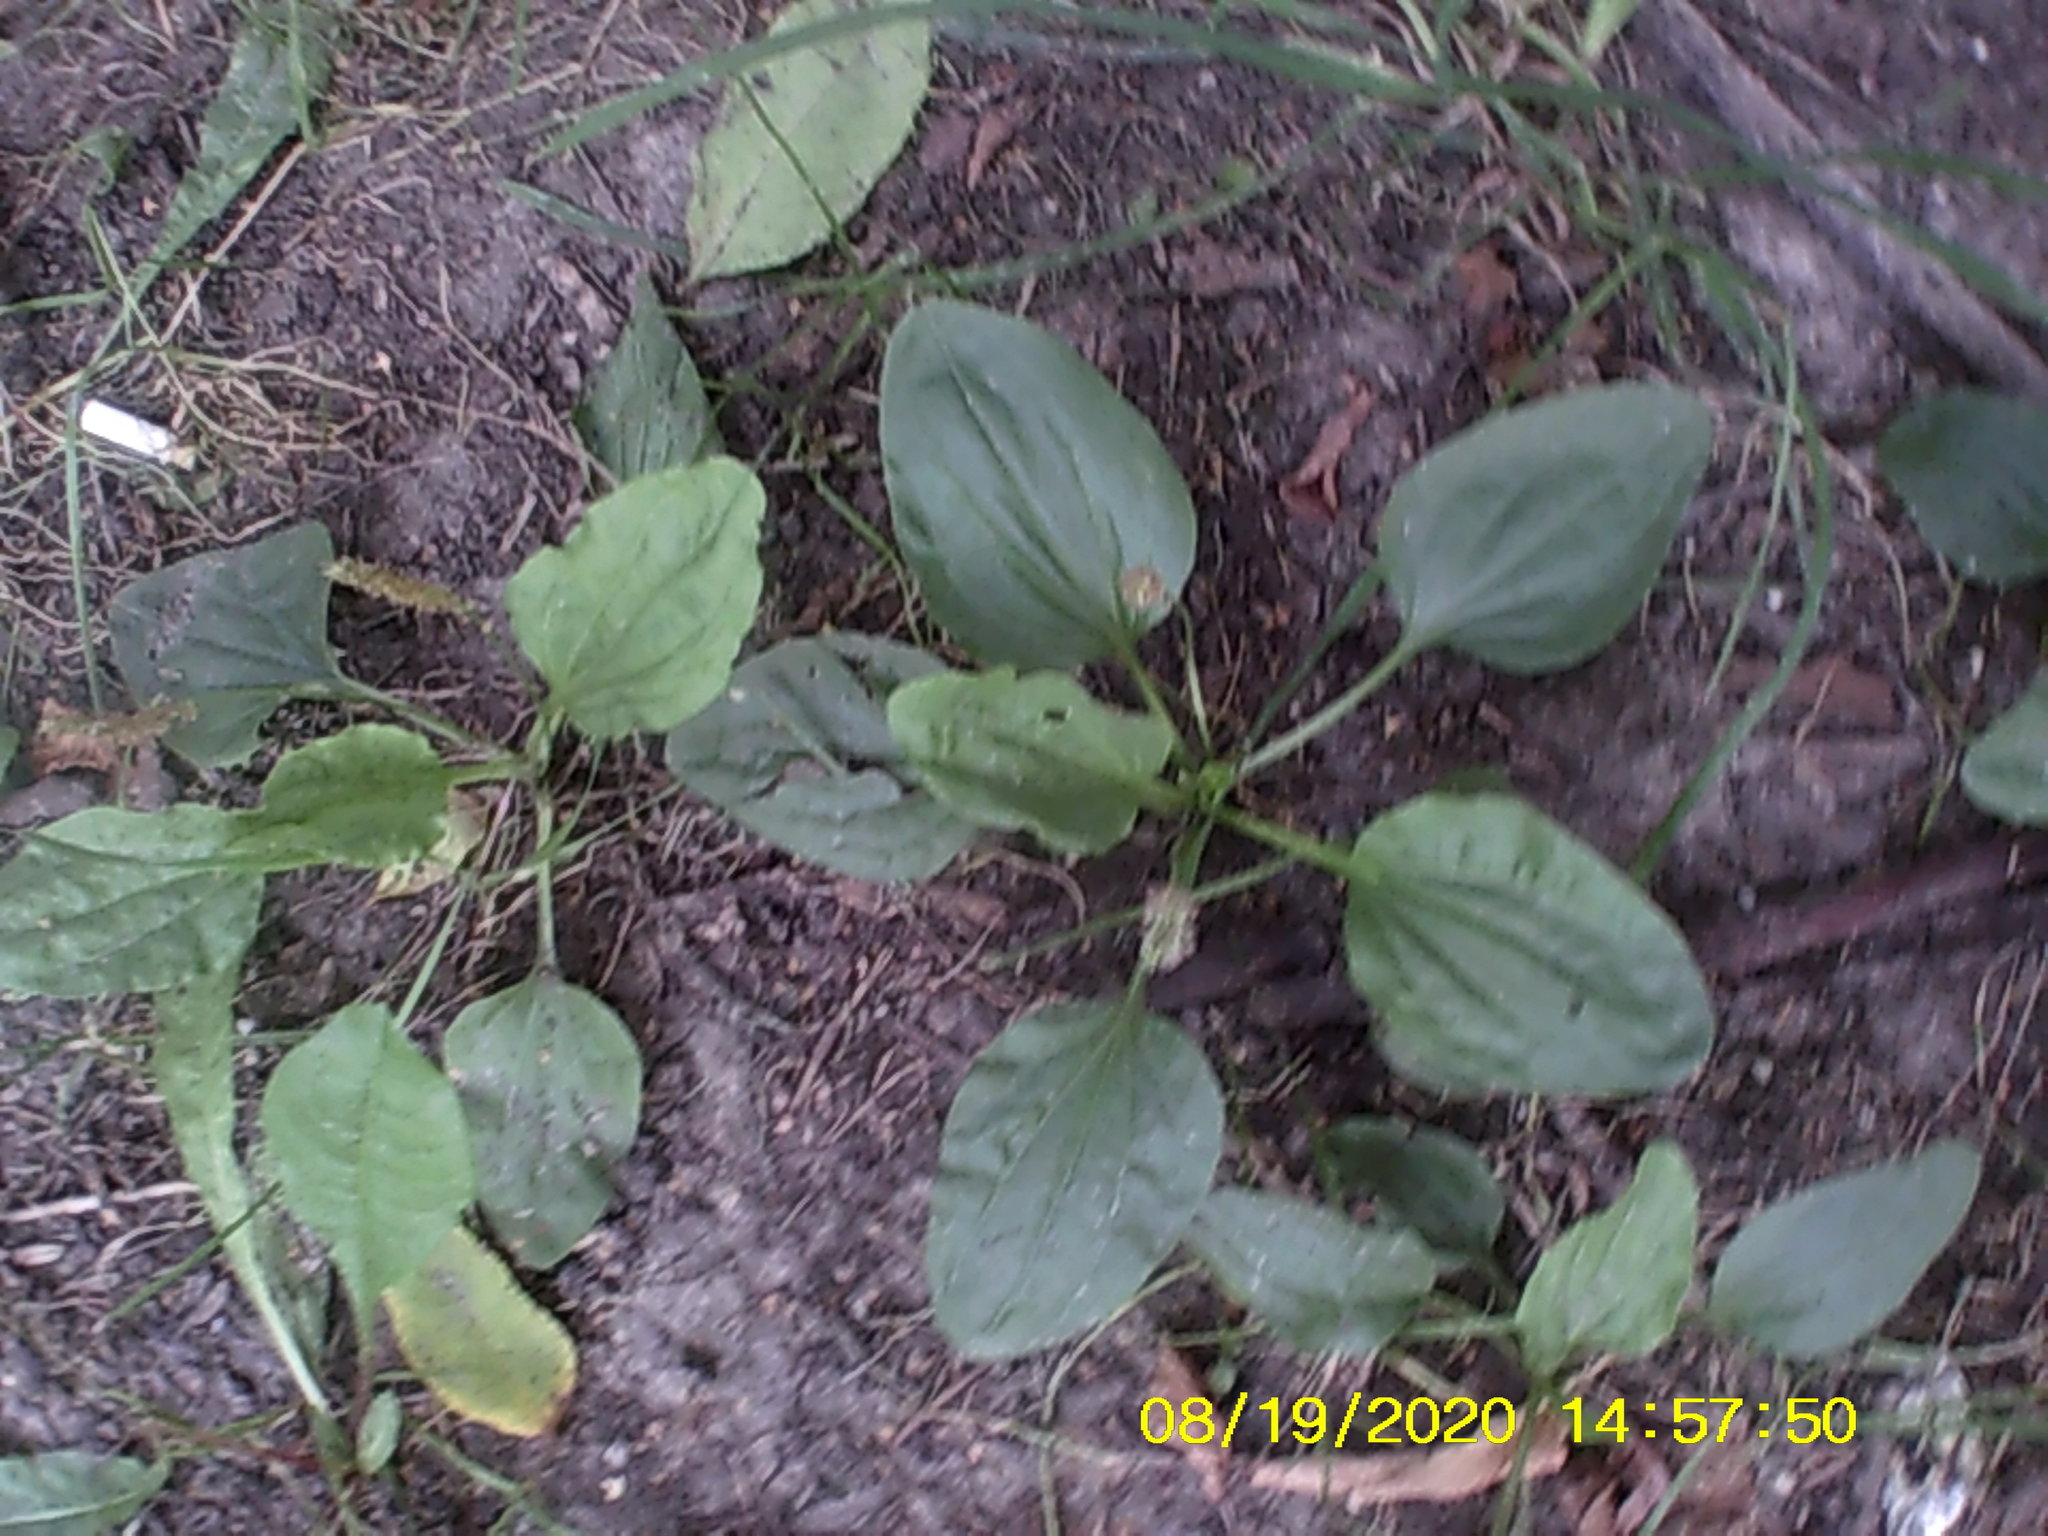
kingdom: Plantae
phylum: Tracheophyta
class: Magnoliopsida
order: Lamiales
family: Plantaginaceae
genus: Plantago
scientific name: Plantago major
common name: Common plantain
